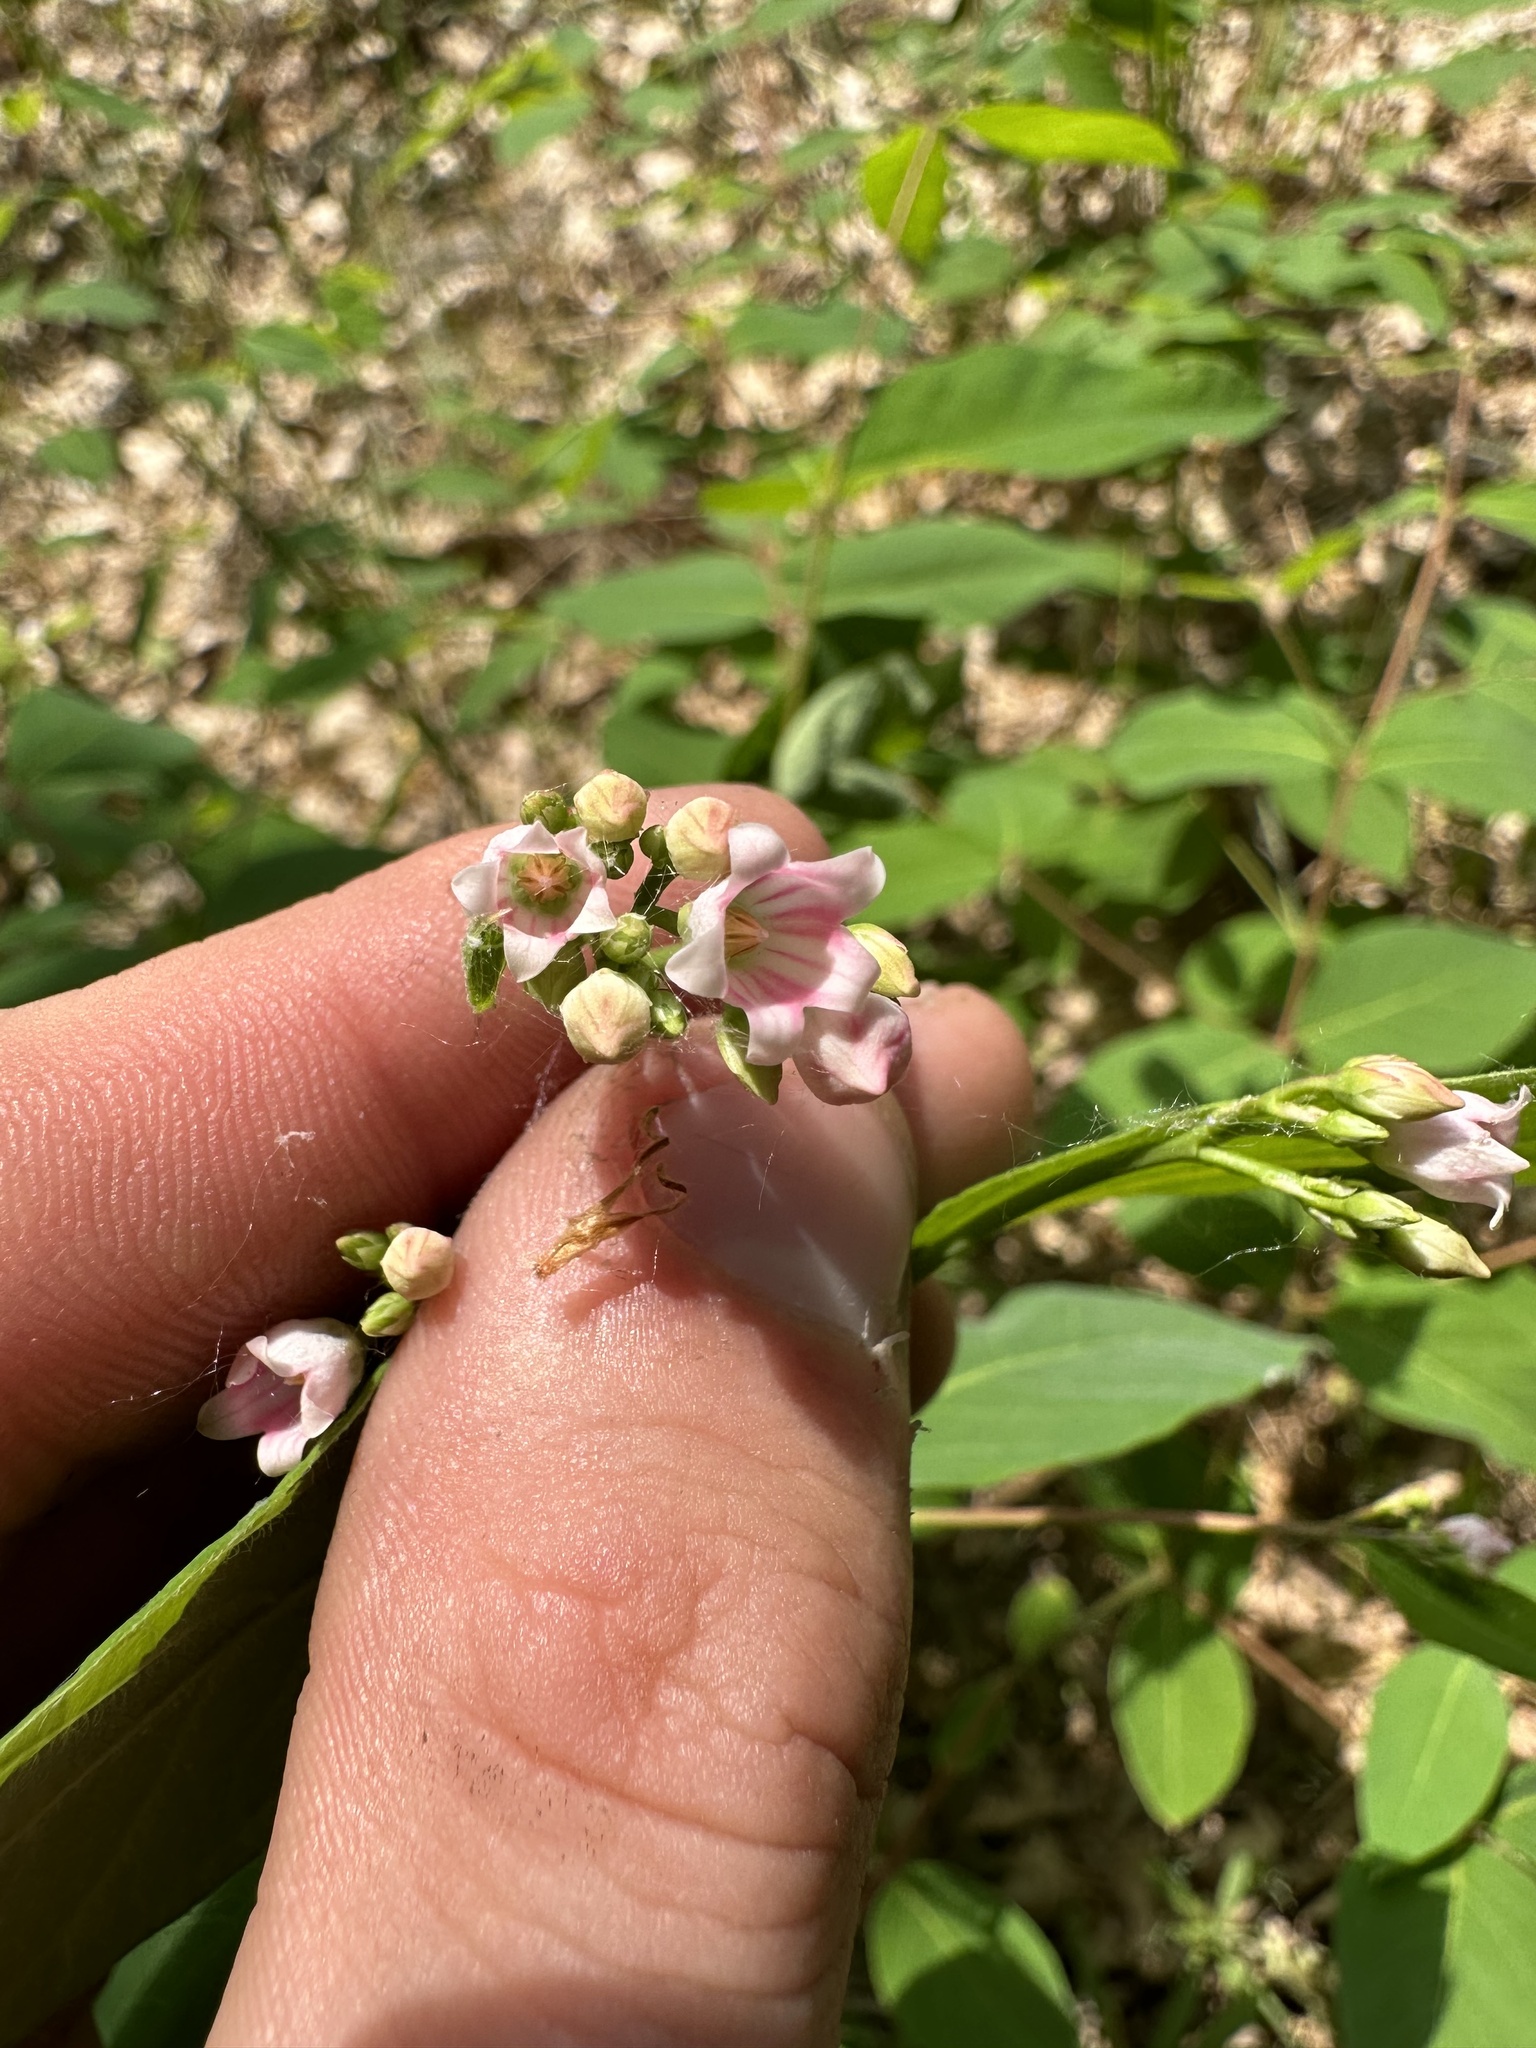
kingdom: Plantae
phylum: Tracheophyta
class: Magnoliopsida
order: Gentianales
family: Apocynaceae
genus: Apocynum
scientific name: Apocynum androsaemifolium
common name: Spreading dogbane
